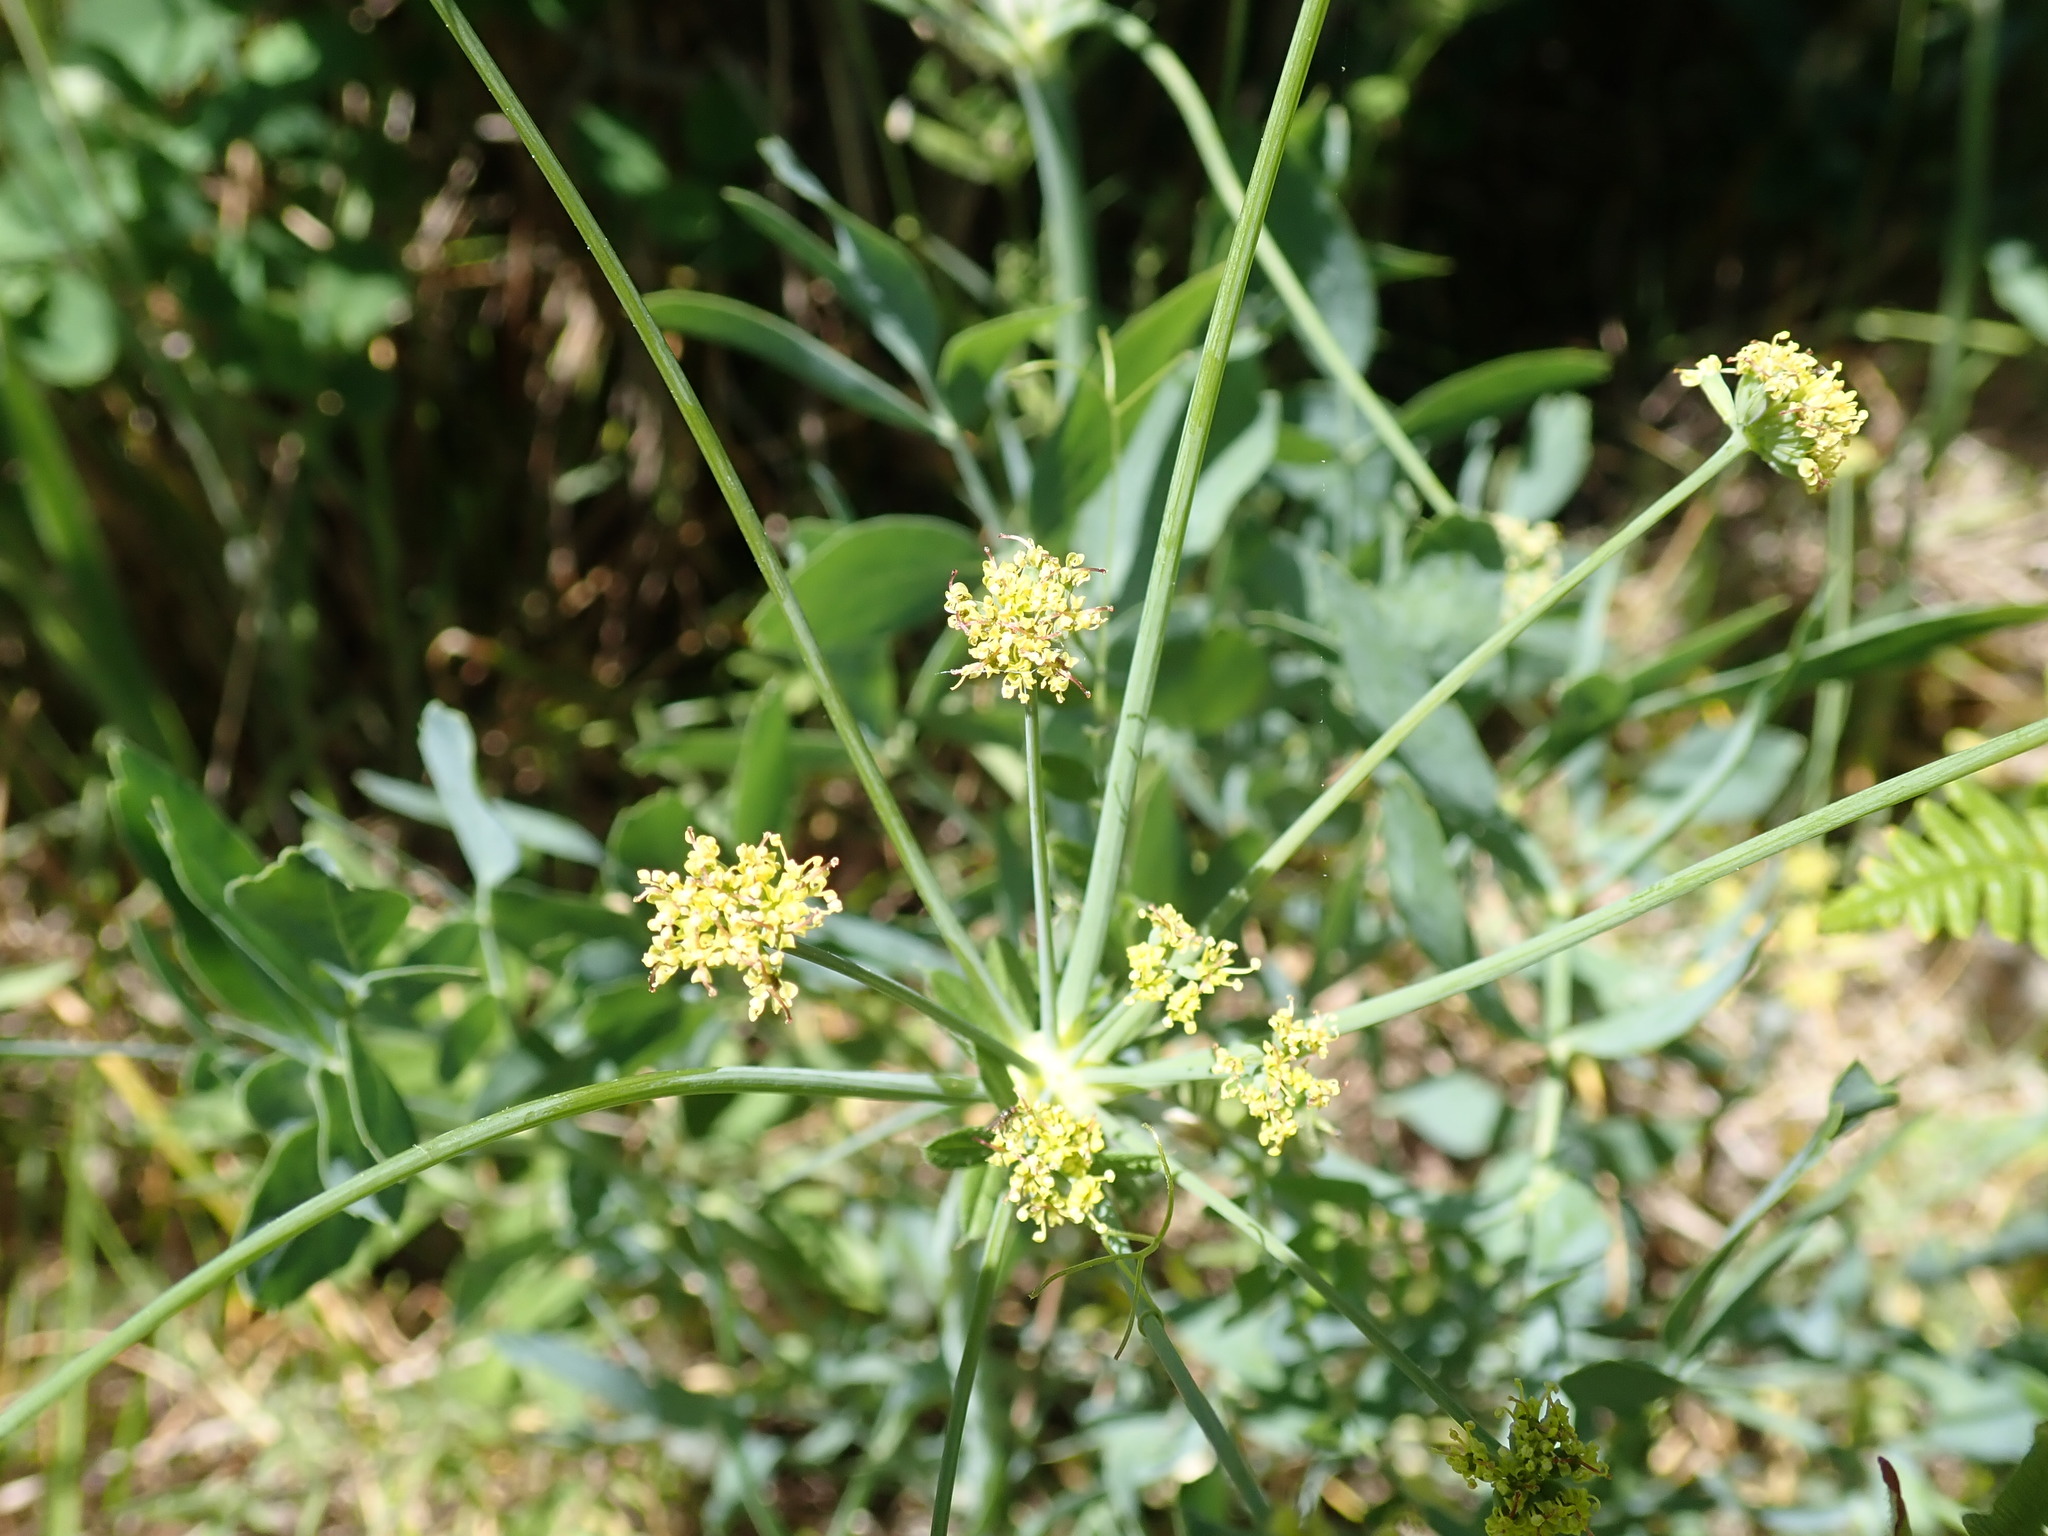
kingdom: Plantae
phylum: Tracheophyta
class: Magnoliopsida
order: Apiales
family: Apiaceae
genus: Lomatium
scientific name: Lomatium nudicaule
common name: Pestle lomatium
